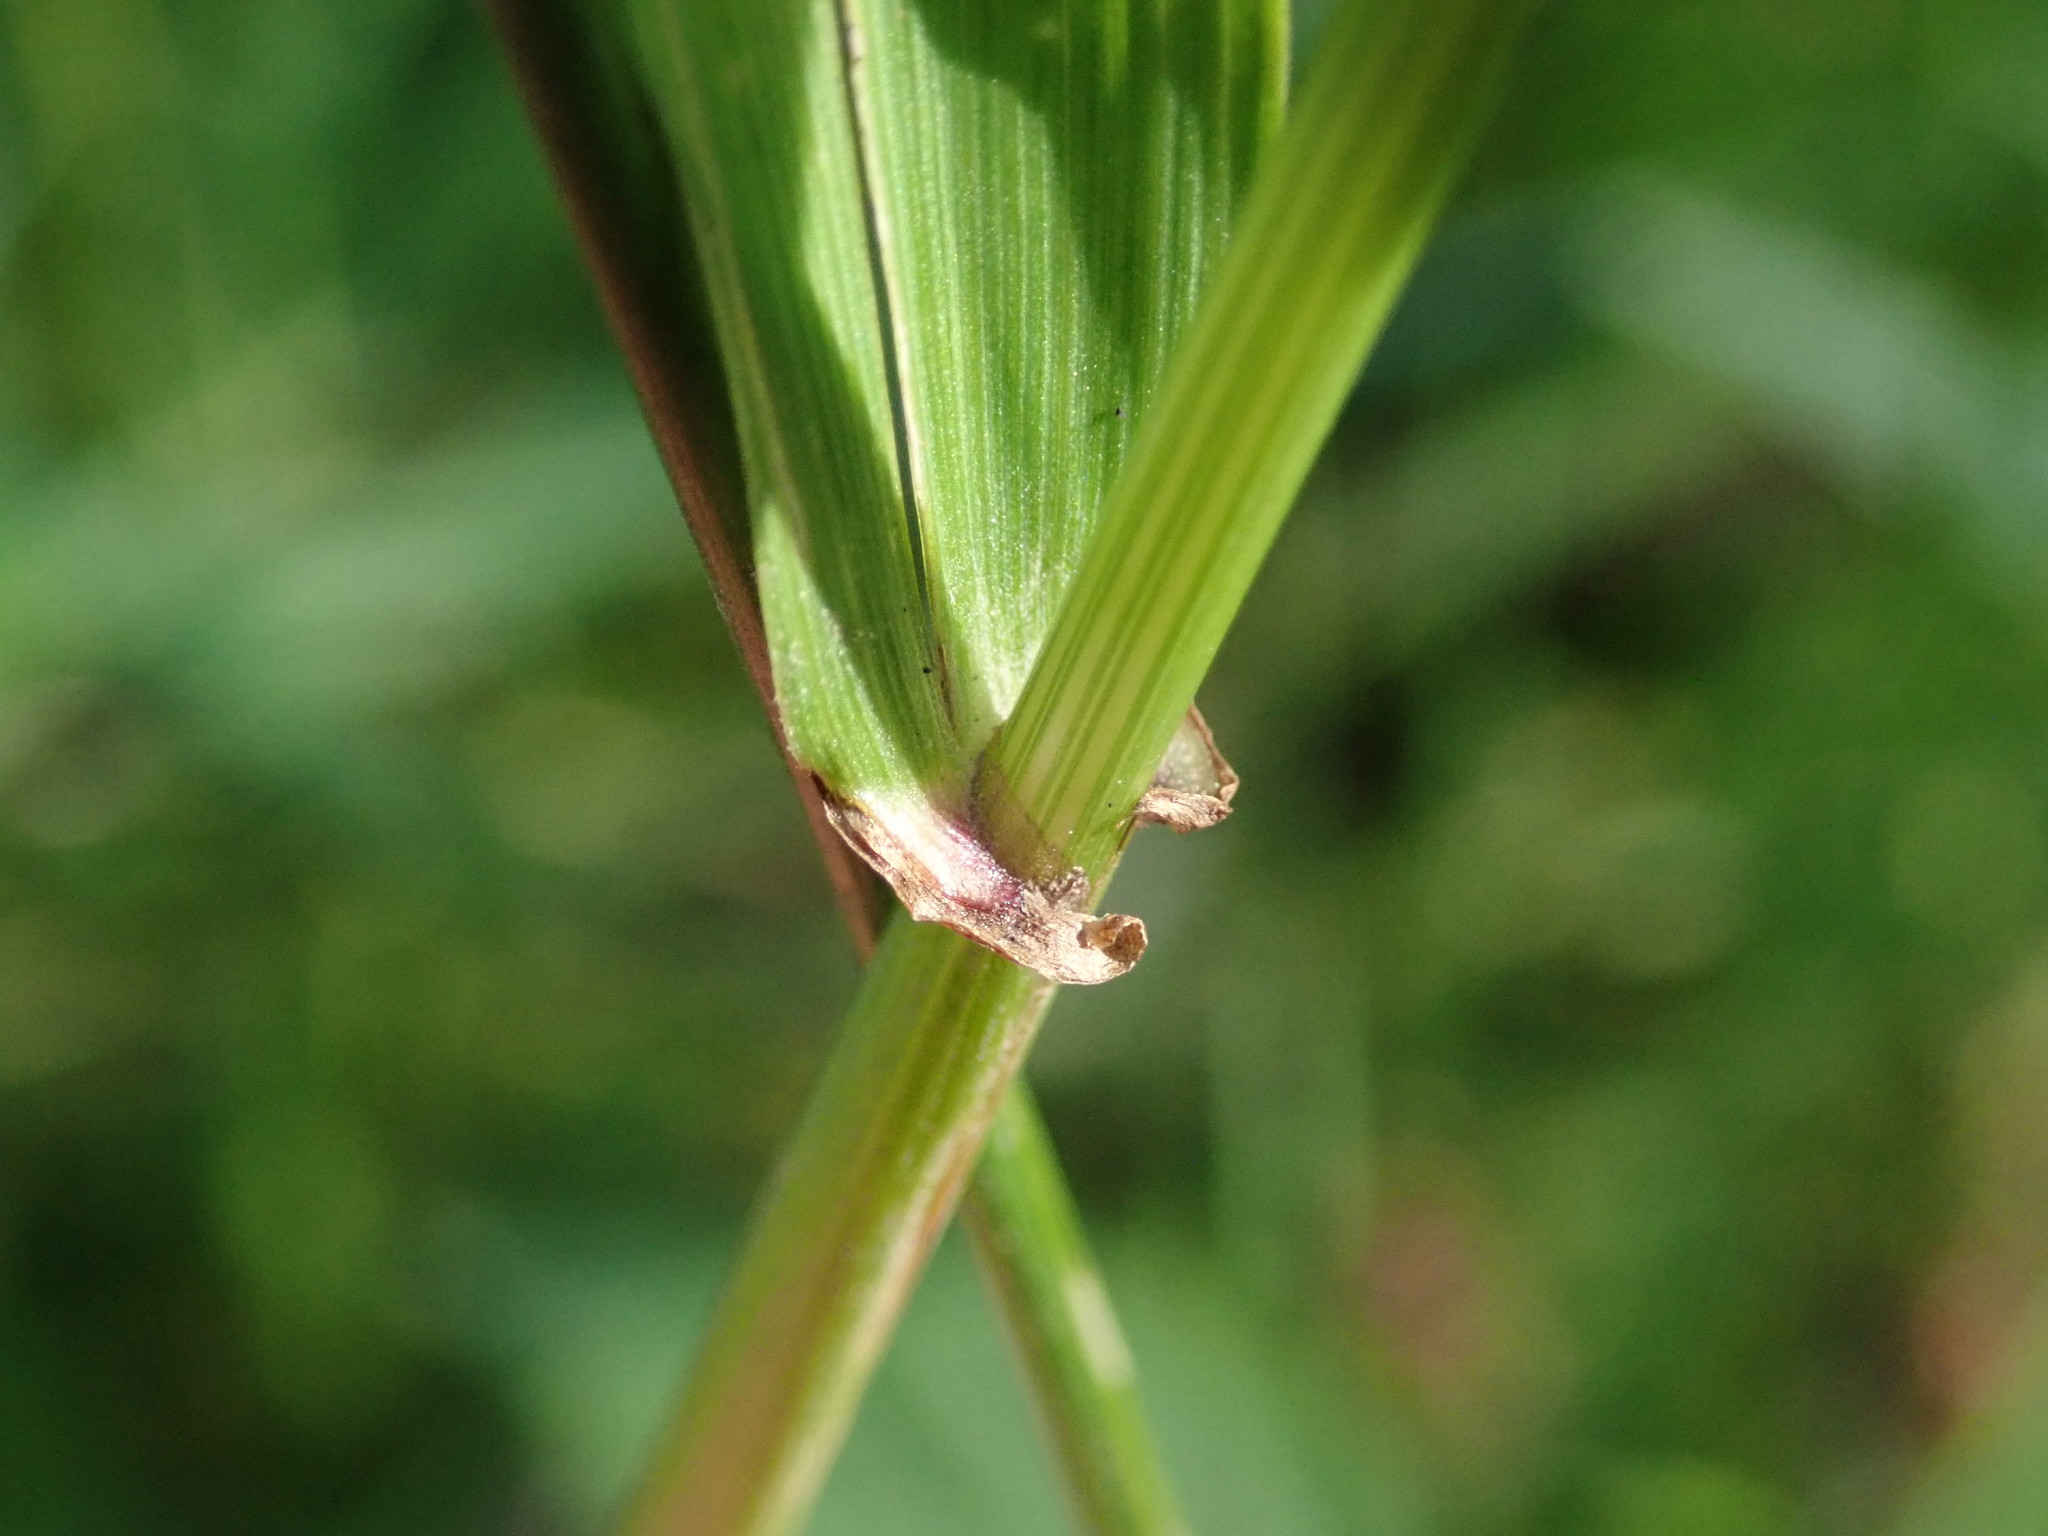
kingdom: Plantae
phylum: Tracheophyta
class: Liliopsida
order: Poales
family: Poaceae
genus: Lolium
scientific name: Lolium giganteum
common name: Giant fescue
